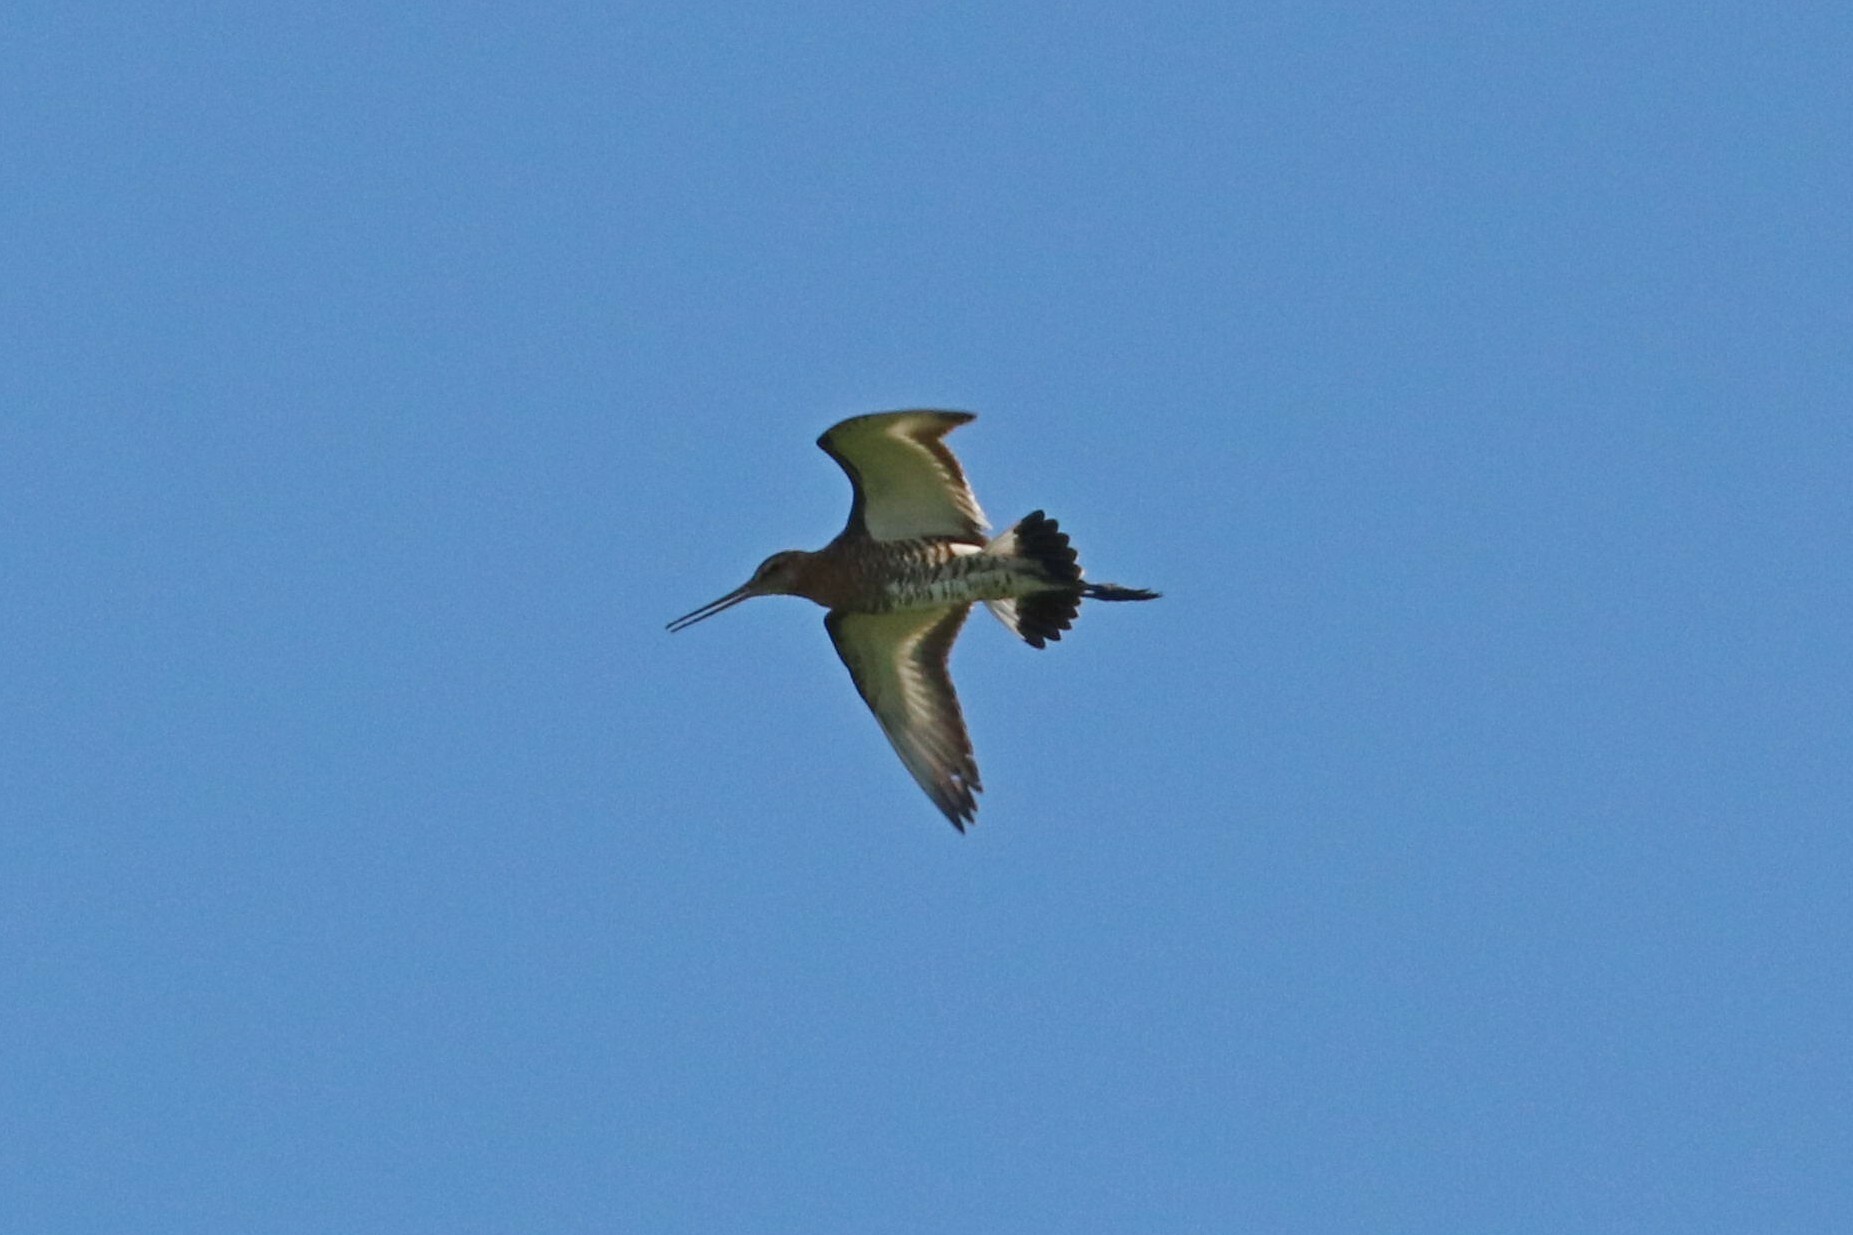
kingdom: Animalia
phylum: Chordata
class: Aves
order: Charadriiformes
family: Scolopacidae
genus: Limosa
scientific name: Limosa limosa
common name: Black-tailed godwit
